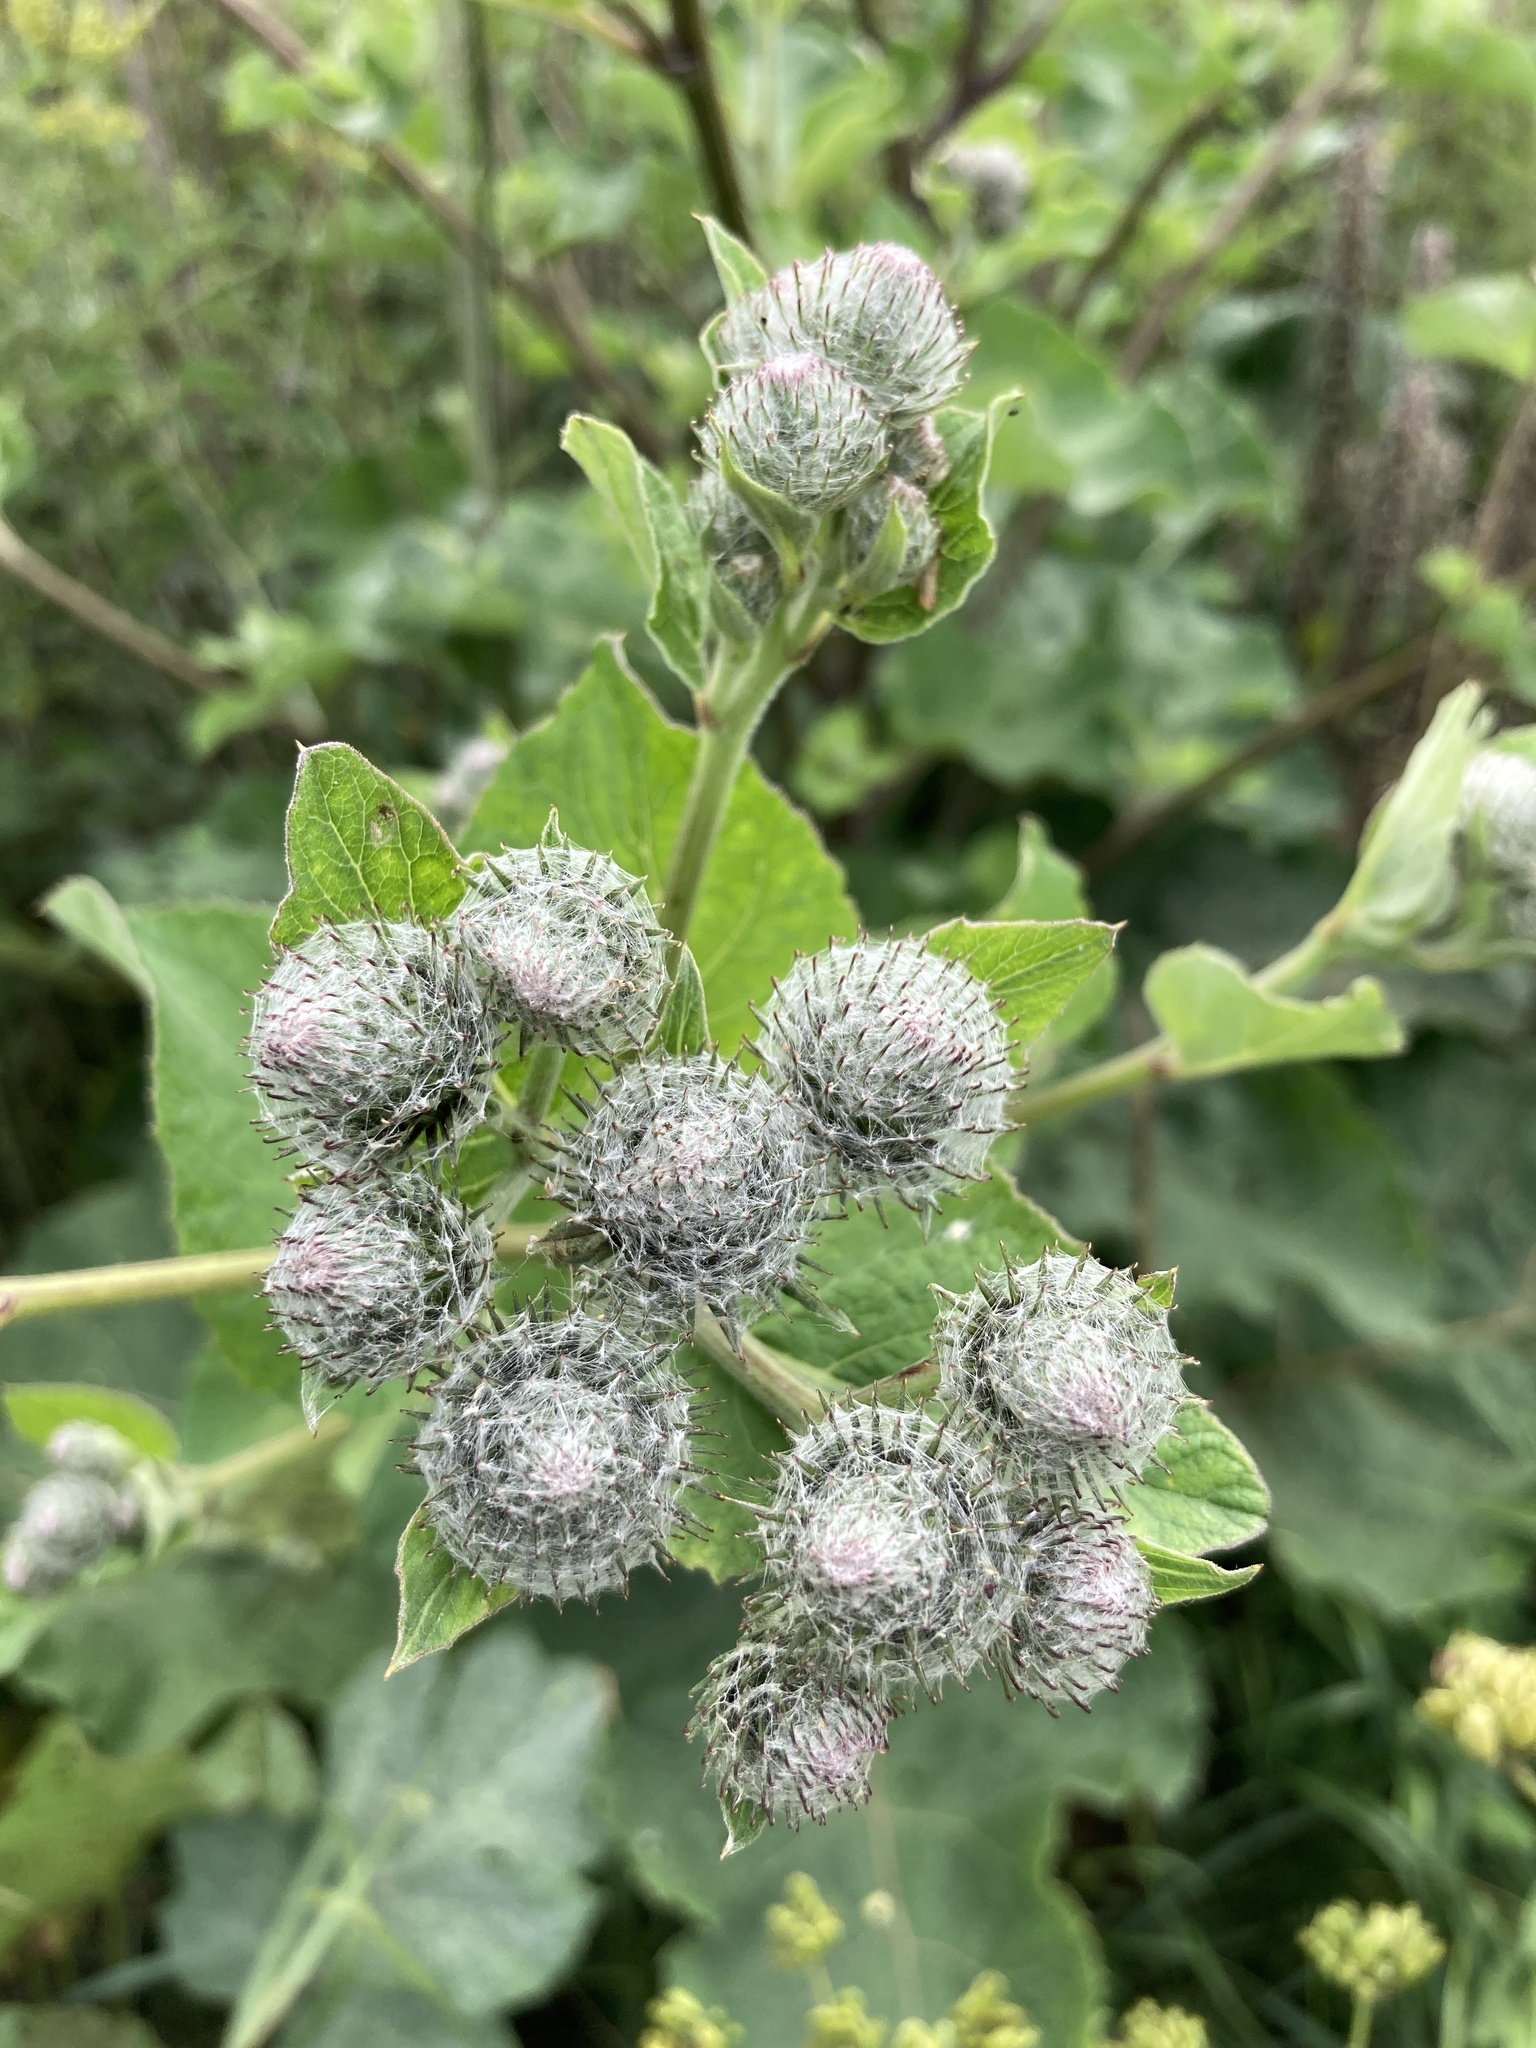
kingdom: Plantae
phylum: Tracheophyta
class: Magnoliopsida
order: Asterales
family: Asteraceae
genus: Arctium
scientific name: Arctium tomentosum
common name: Woolly burdock
